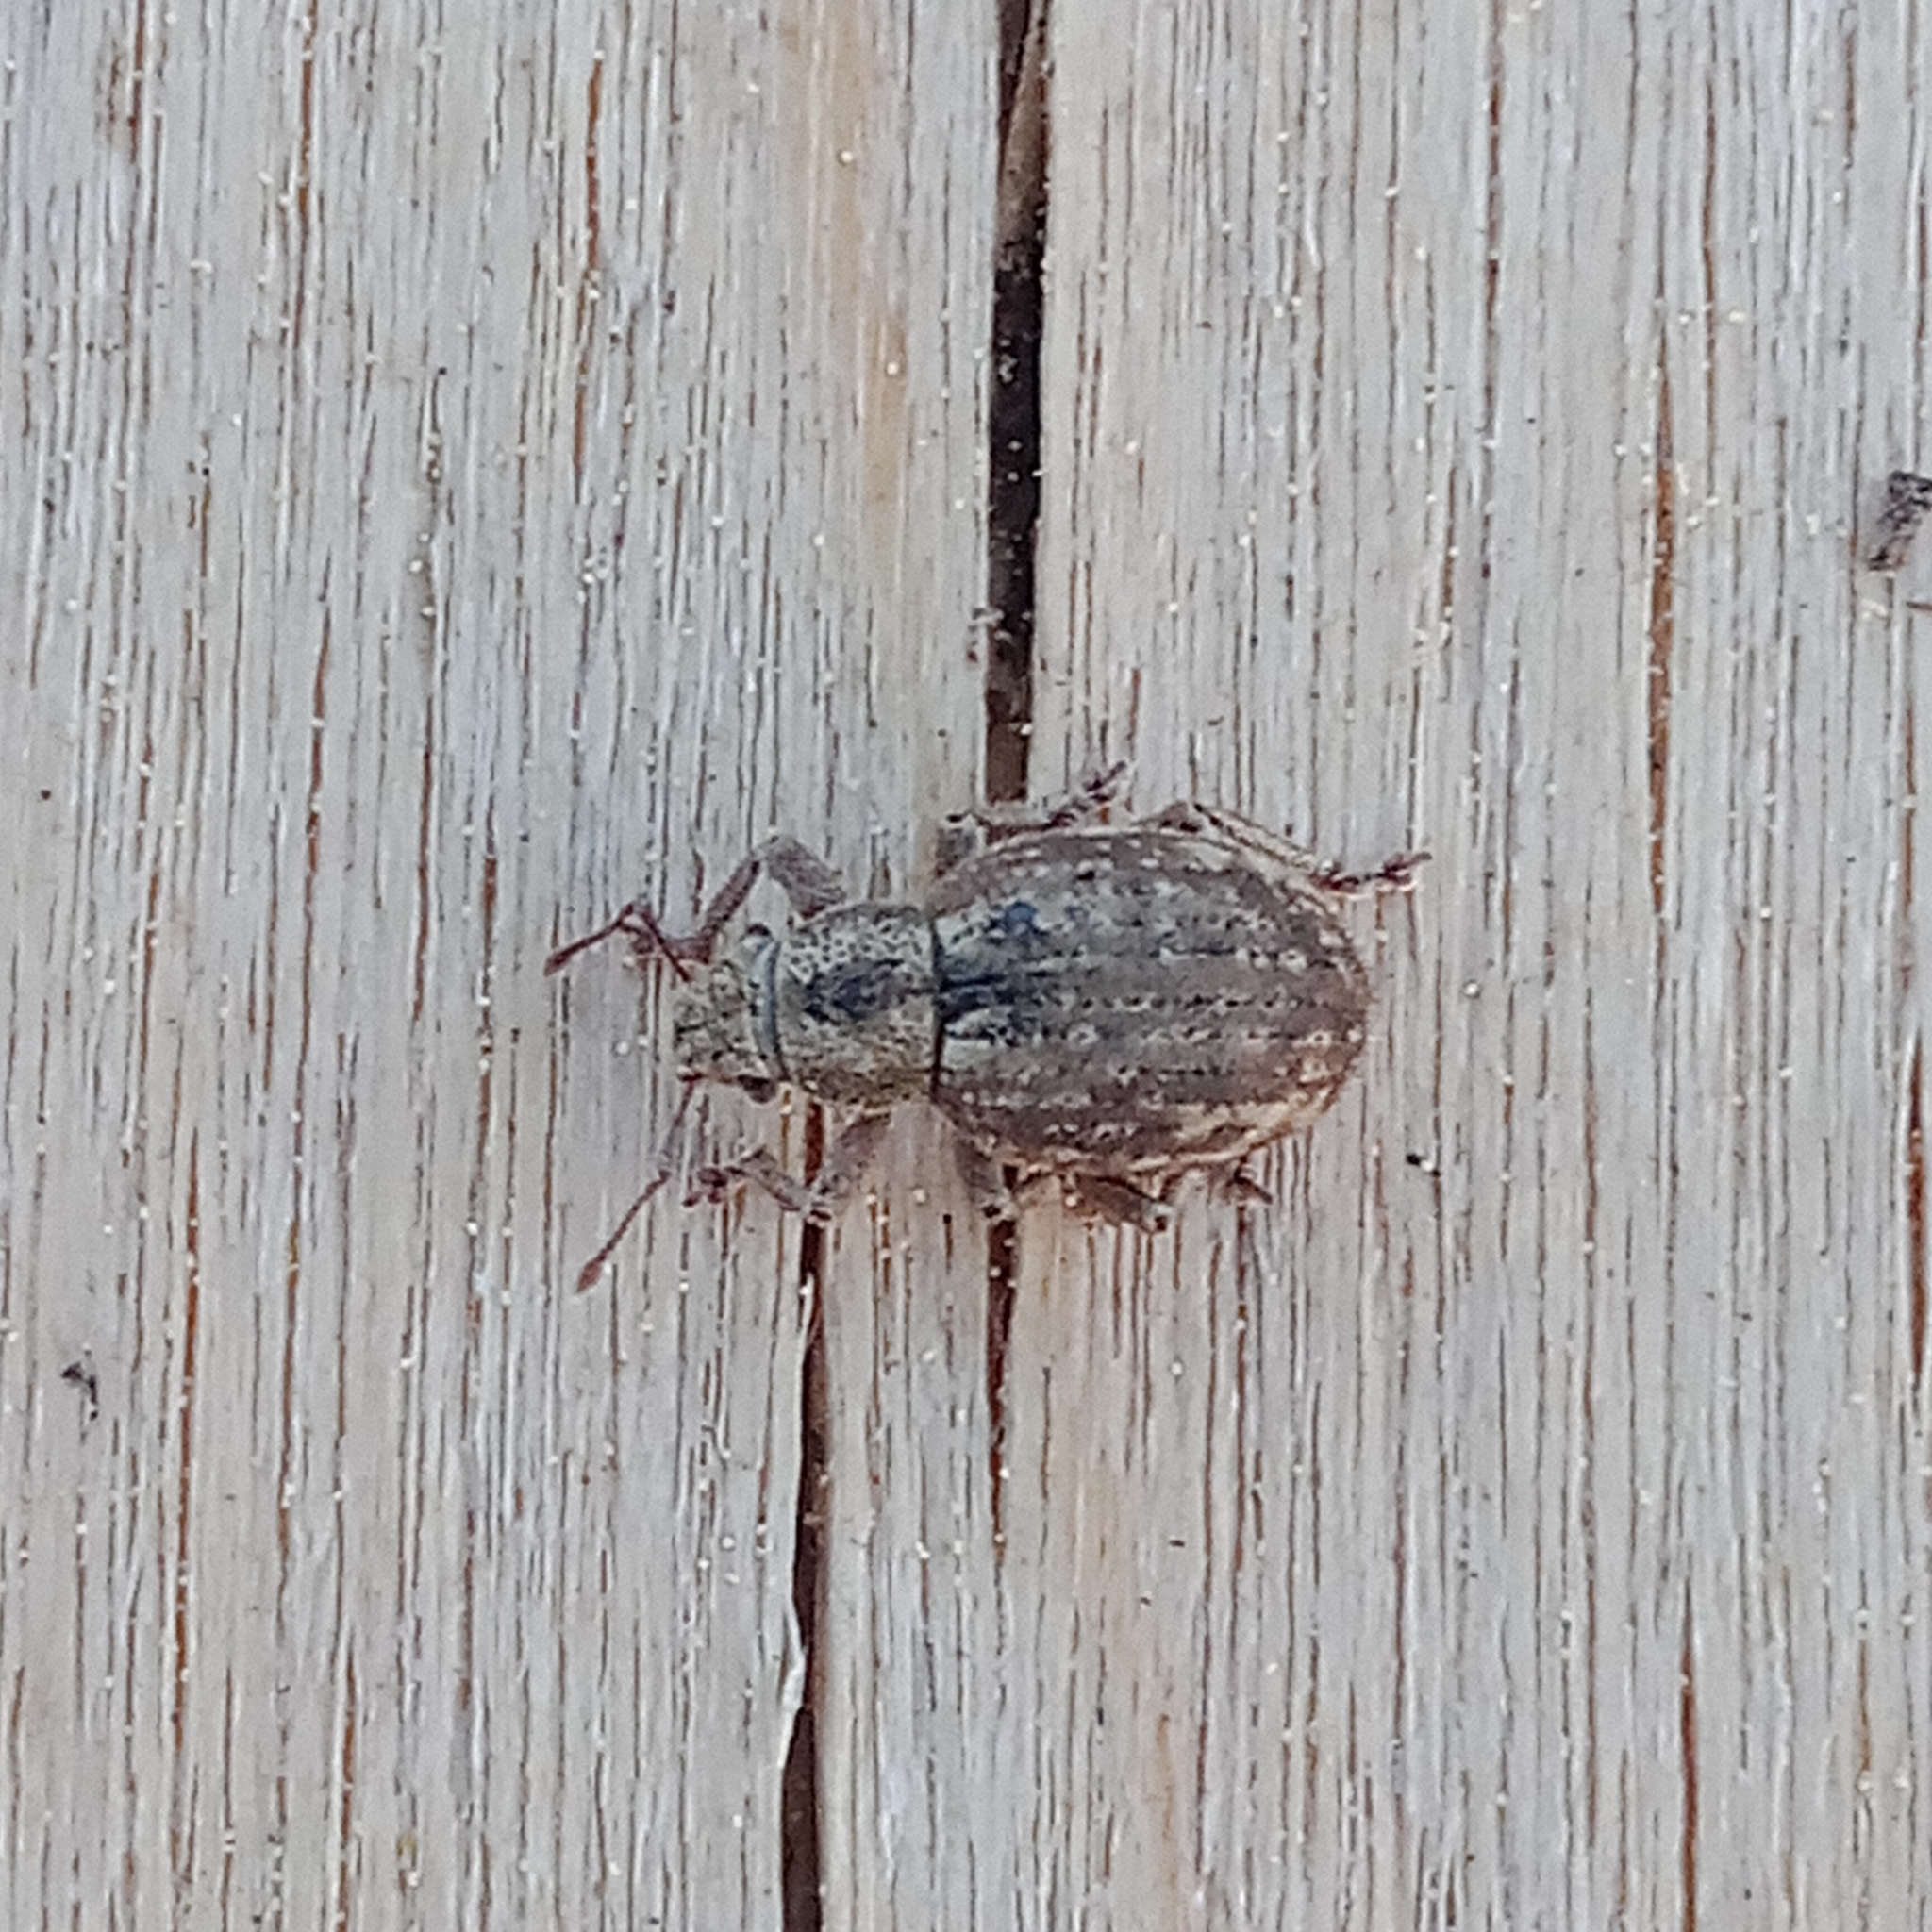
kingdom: Animalia
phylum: Arthropoda
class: Insecta
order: Coleoptera
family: Curculionidae
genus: Strophosoma
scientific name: Strophosoma capitatum
